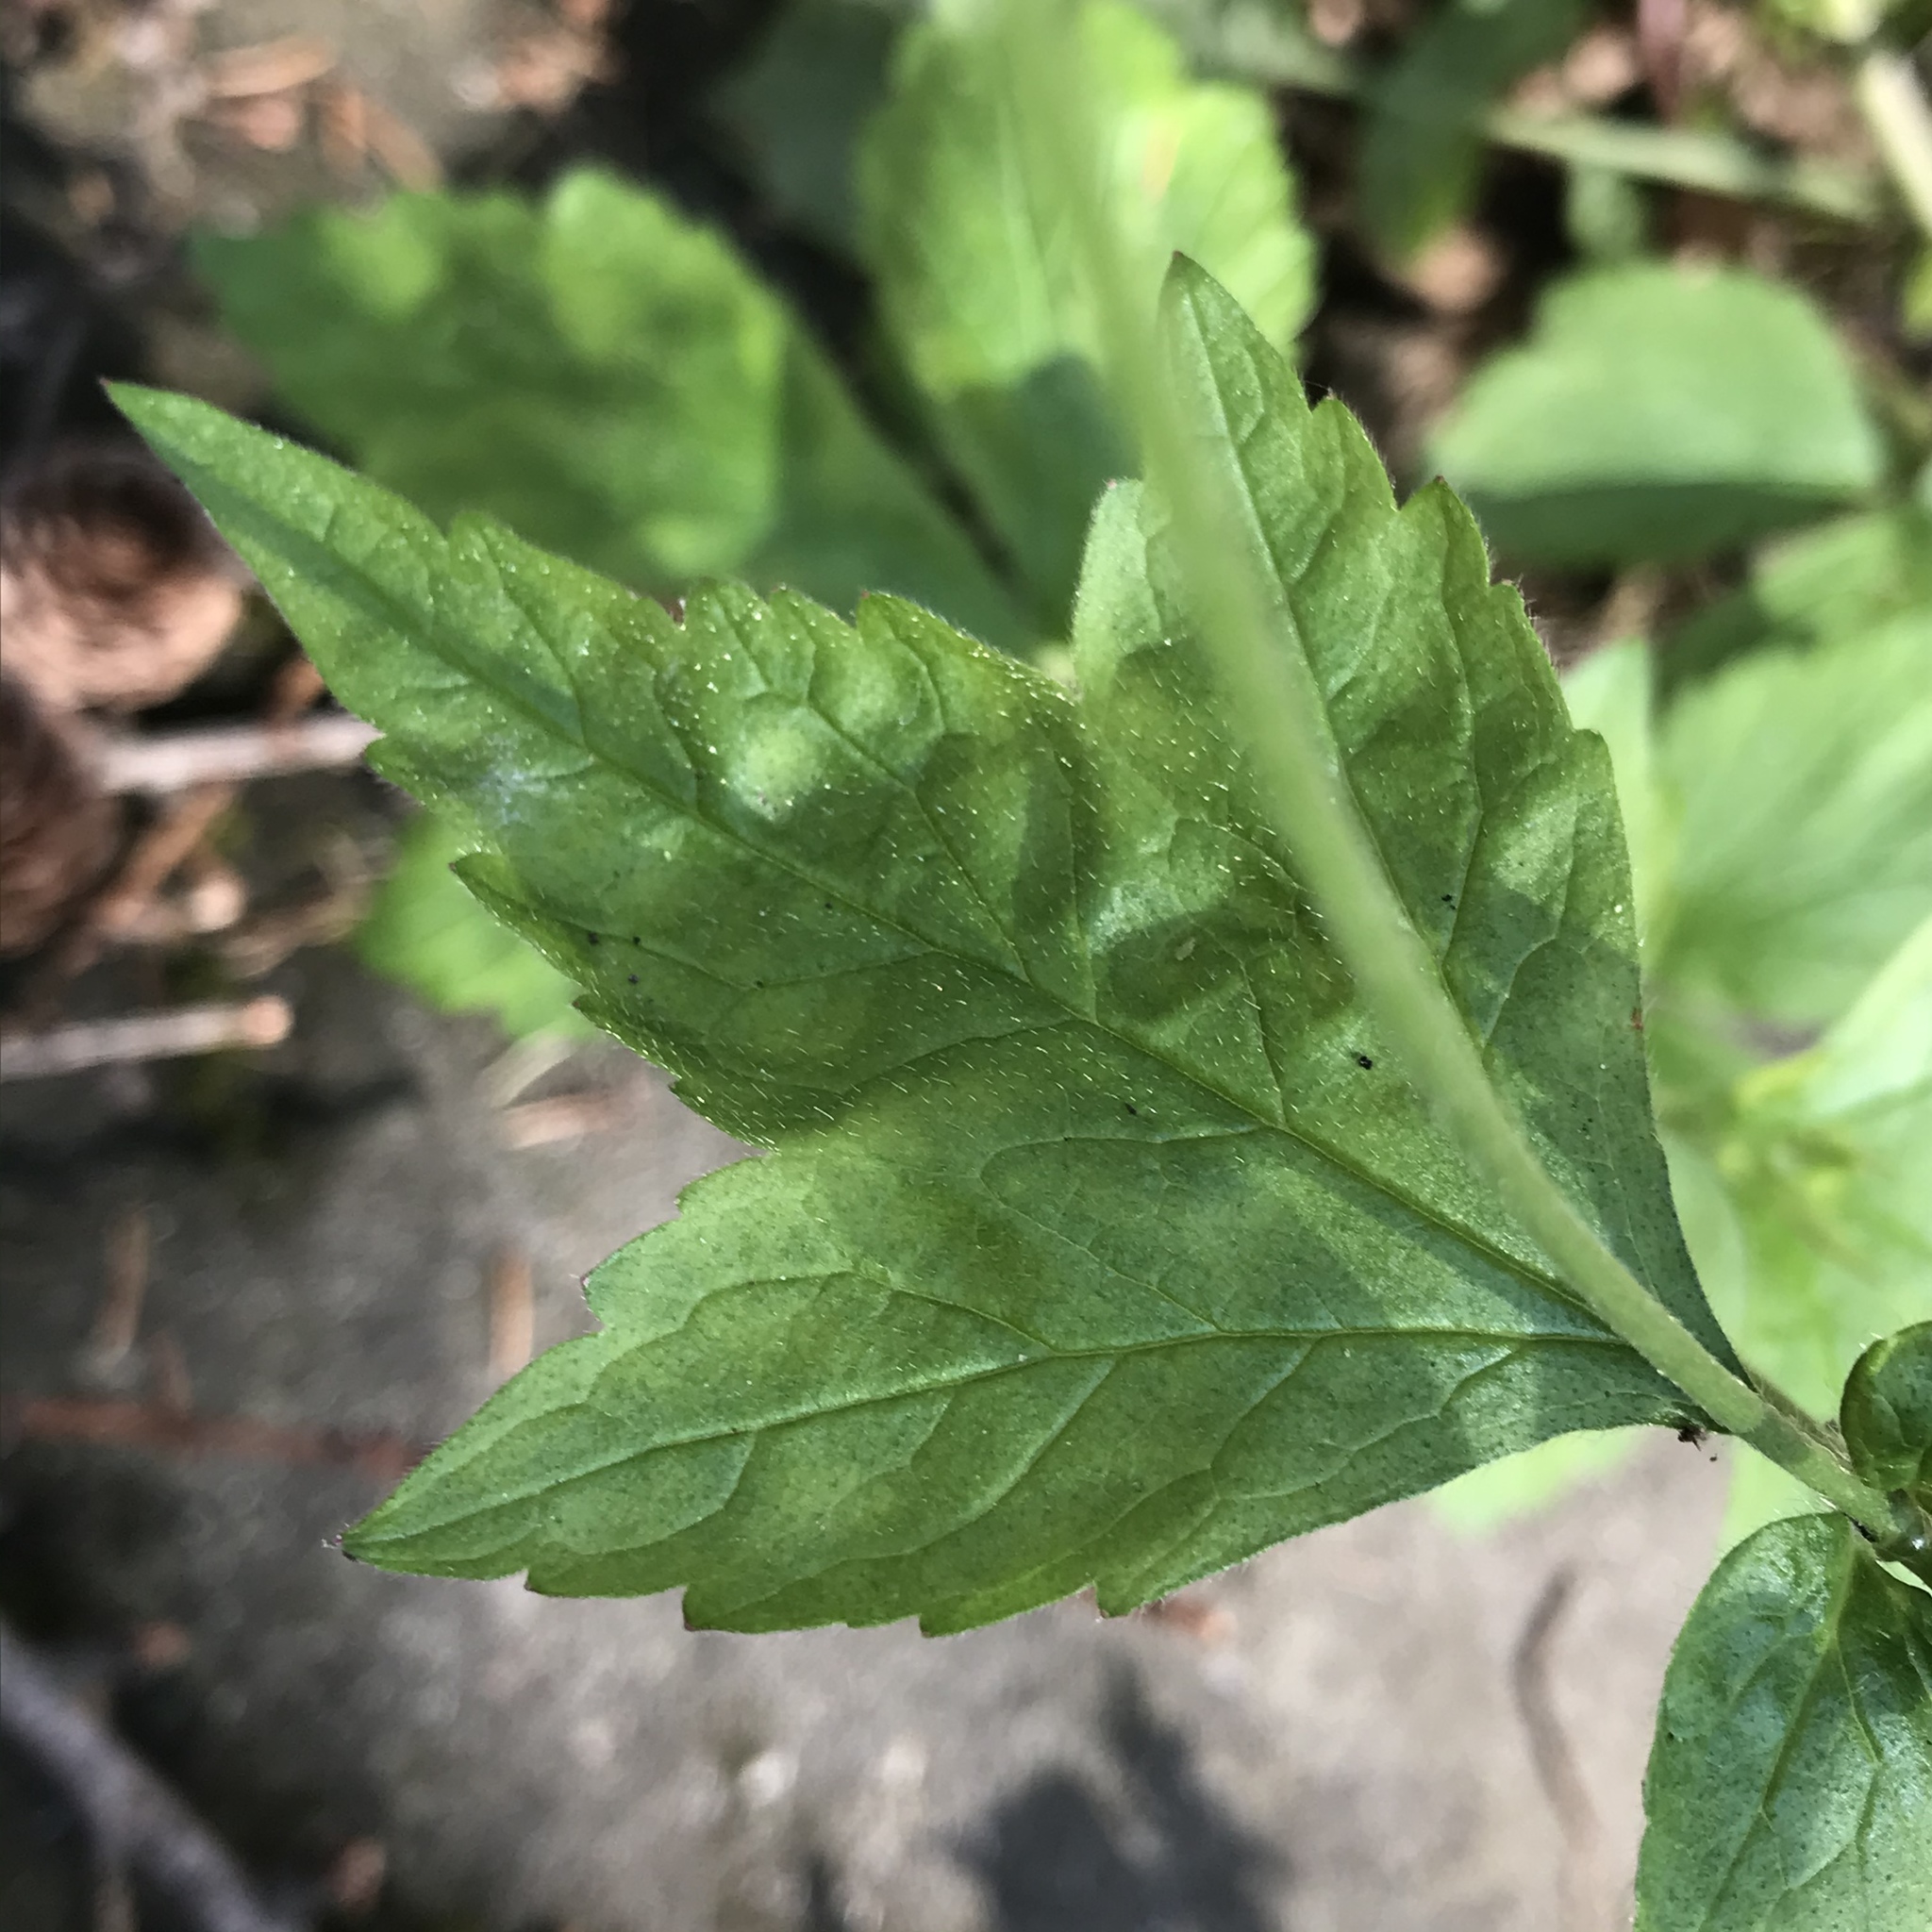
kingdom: Plantae
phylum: Tracheophyta
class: Magnoliopsida
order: Rosales
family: Rosaceae
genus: Geum
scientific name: Geum urbanum
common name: Wood avens
